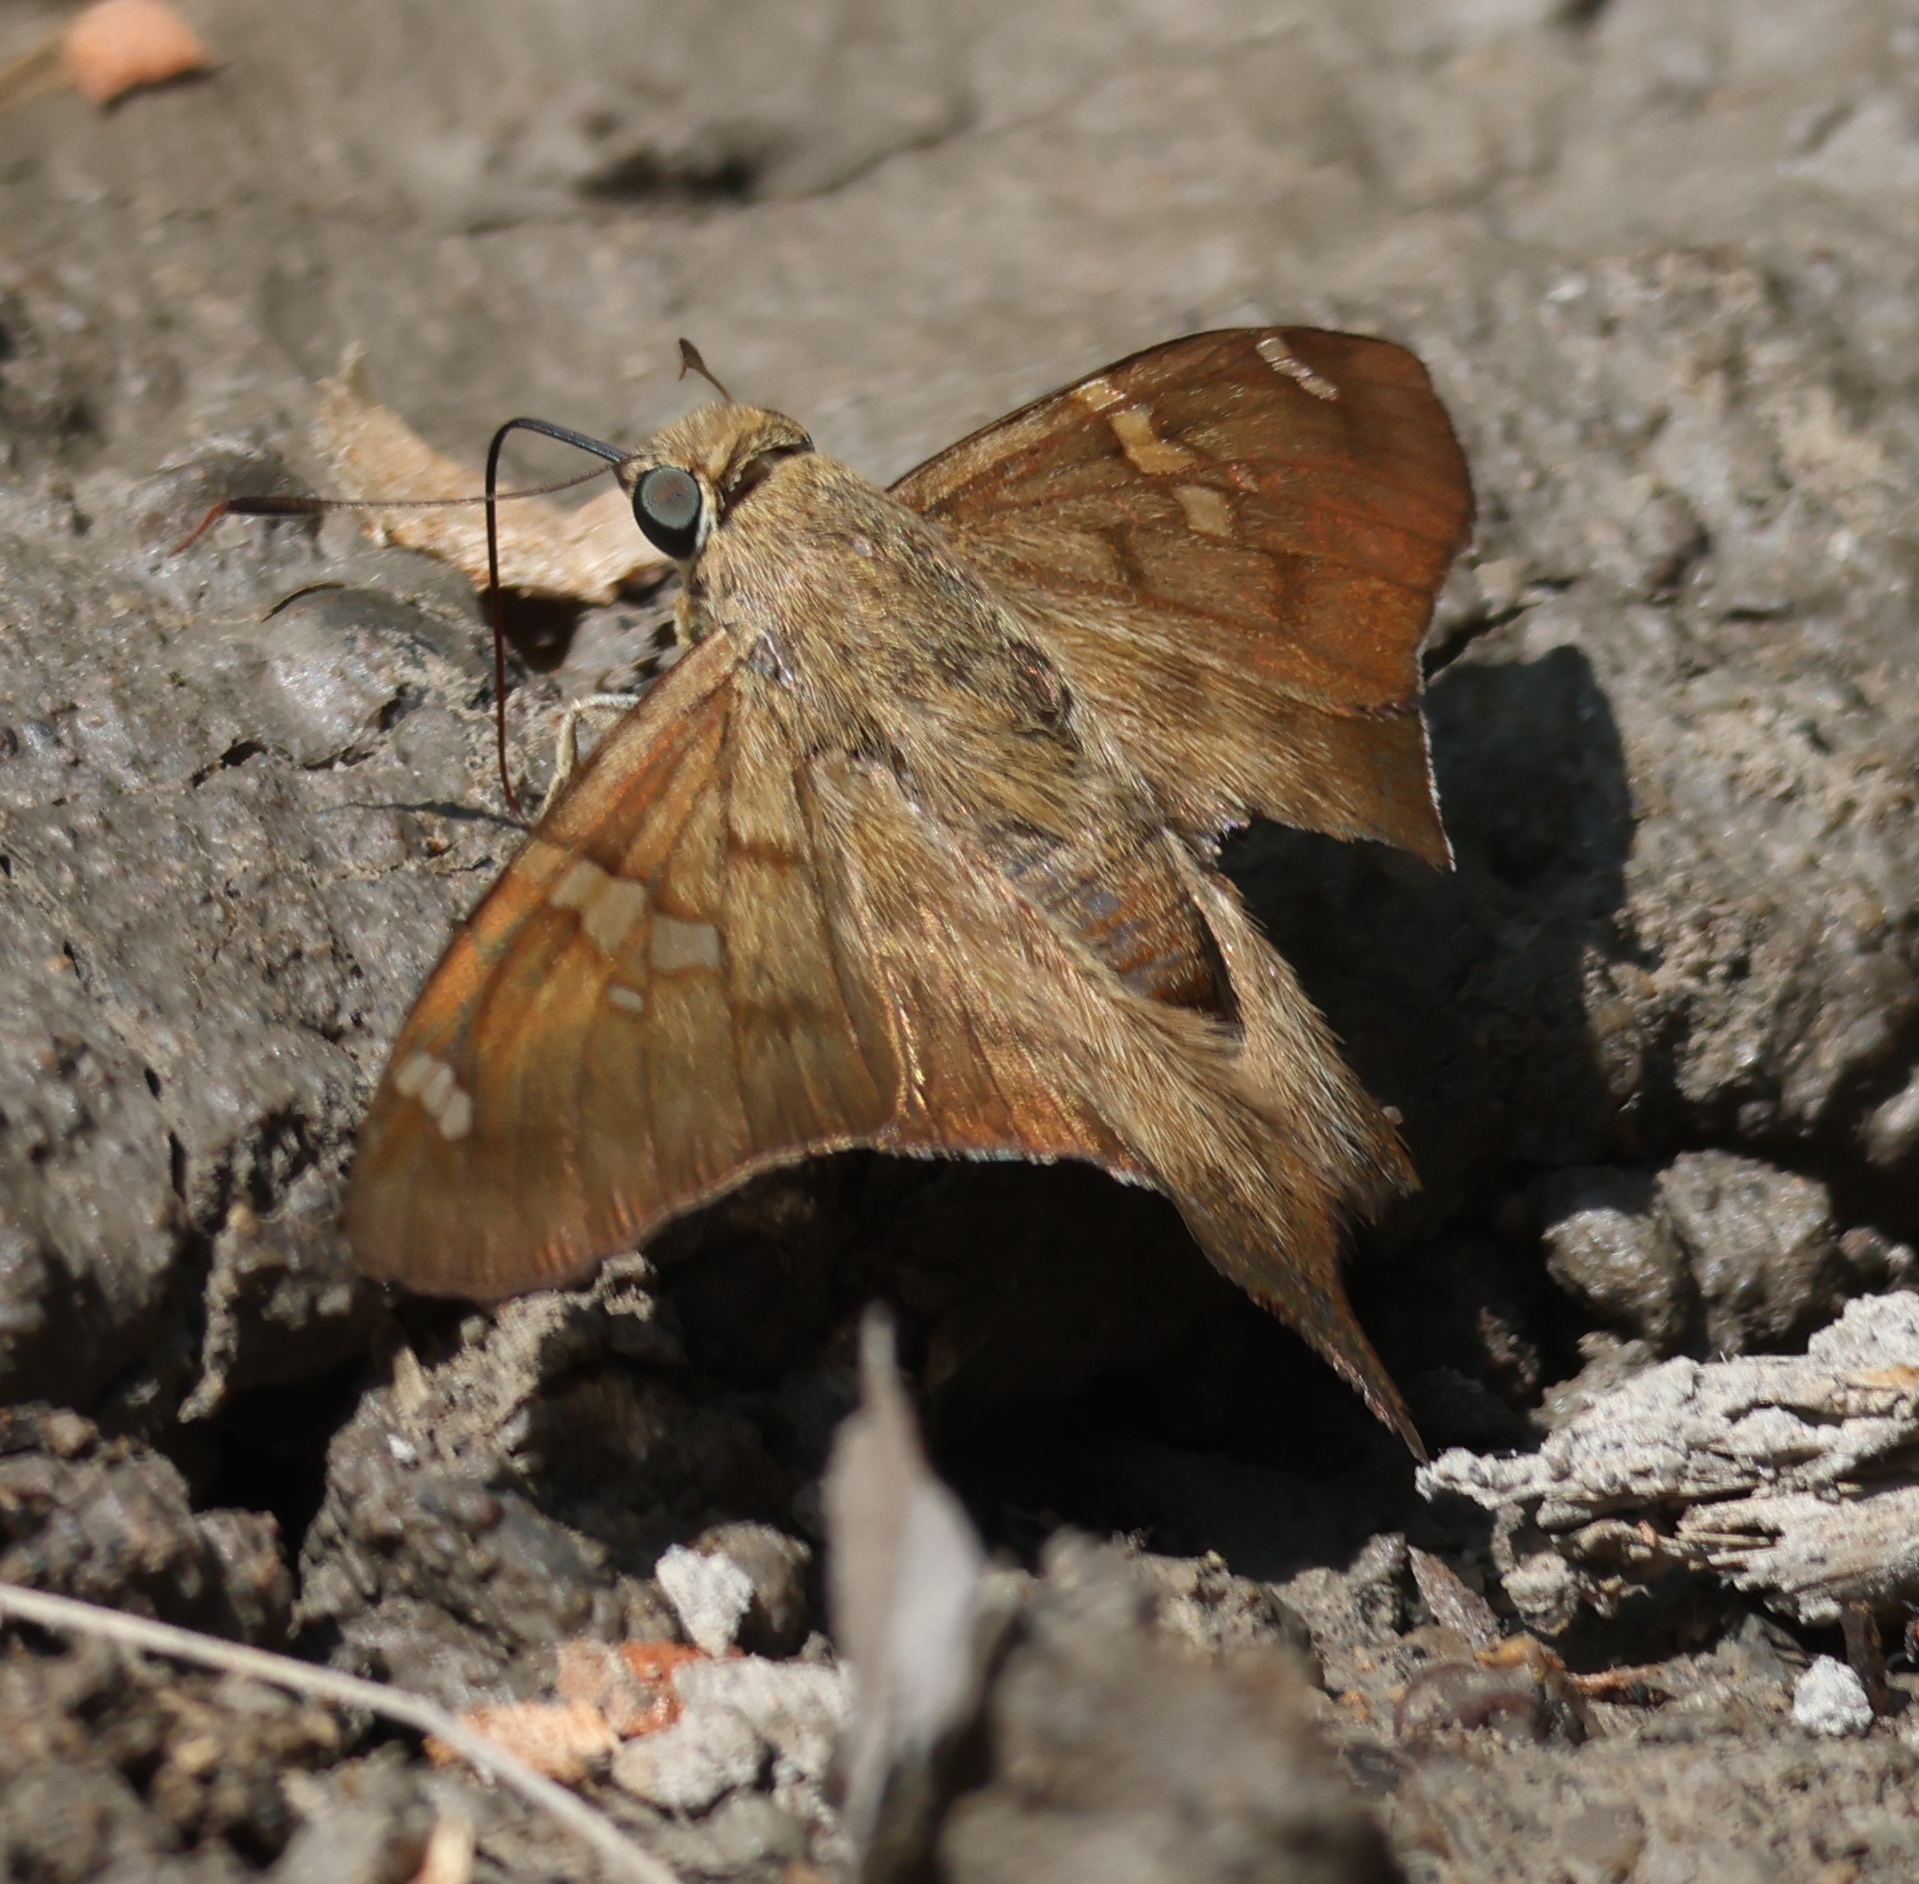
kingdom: Animalia
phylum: Arthropoda
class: Insecta
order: Lepidoptera
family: Hesperiidae
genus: Polythrix
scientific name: Polythrix octomaculata
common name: Eight-spotted longtail
